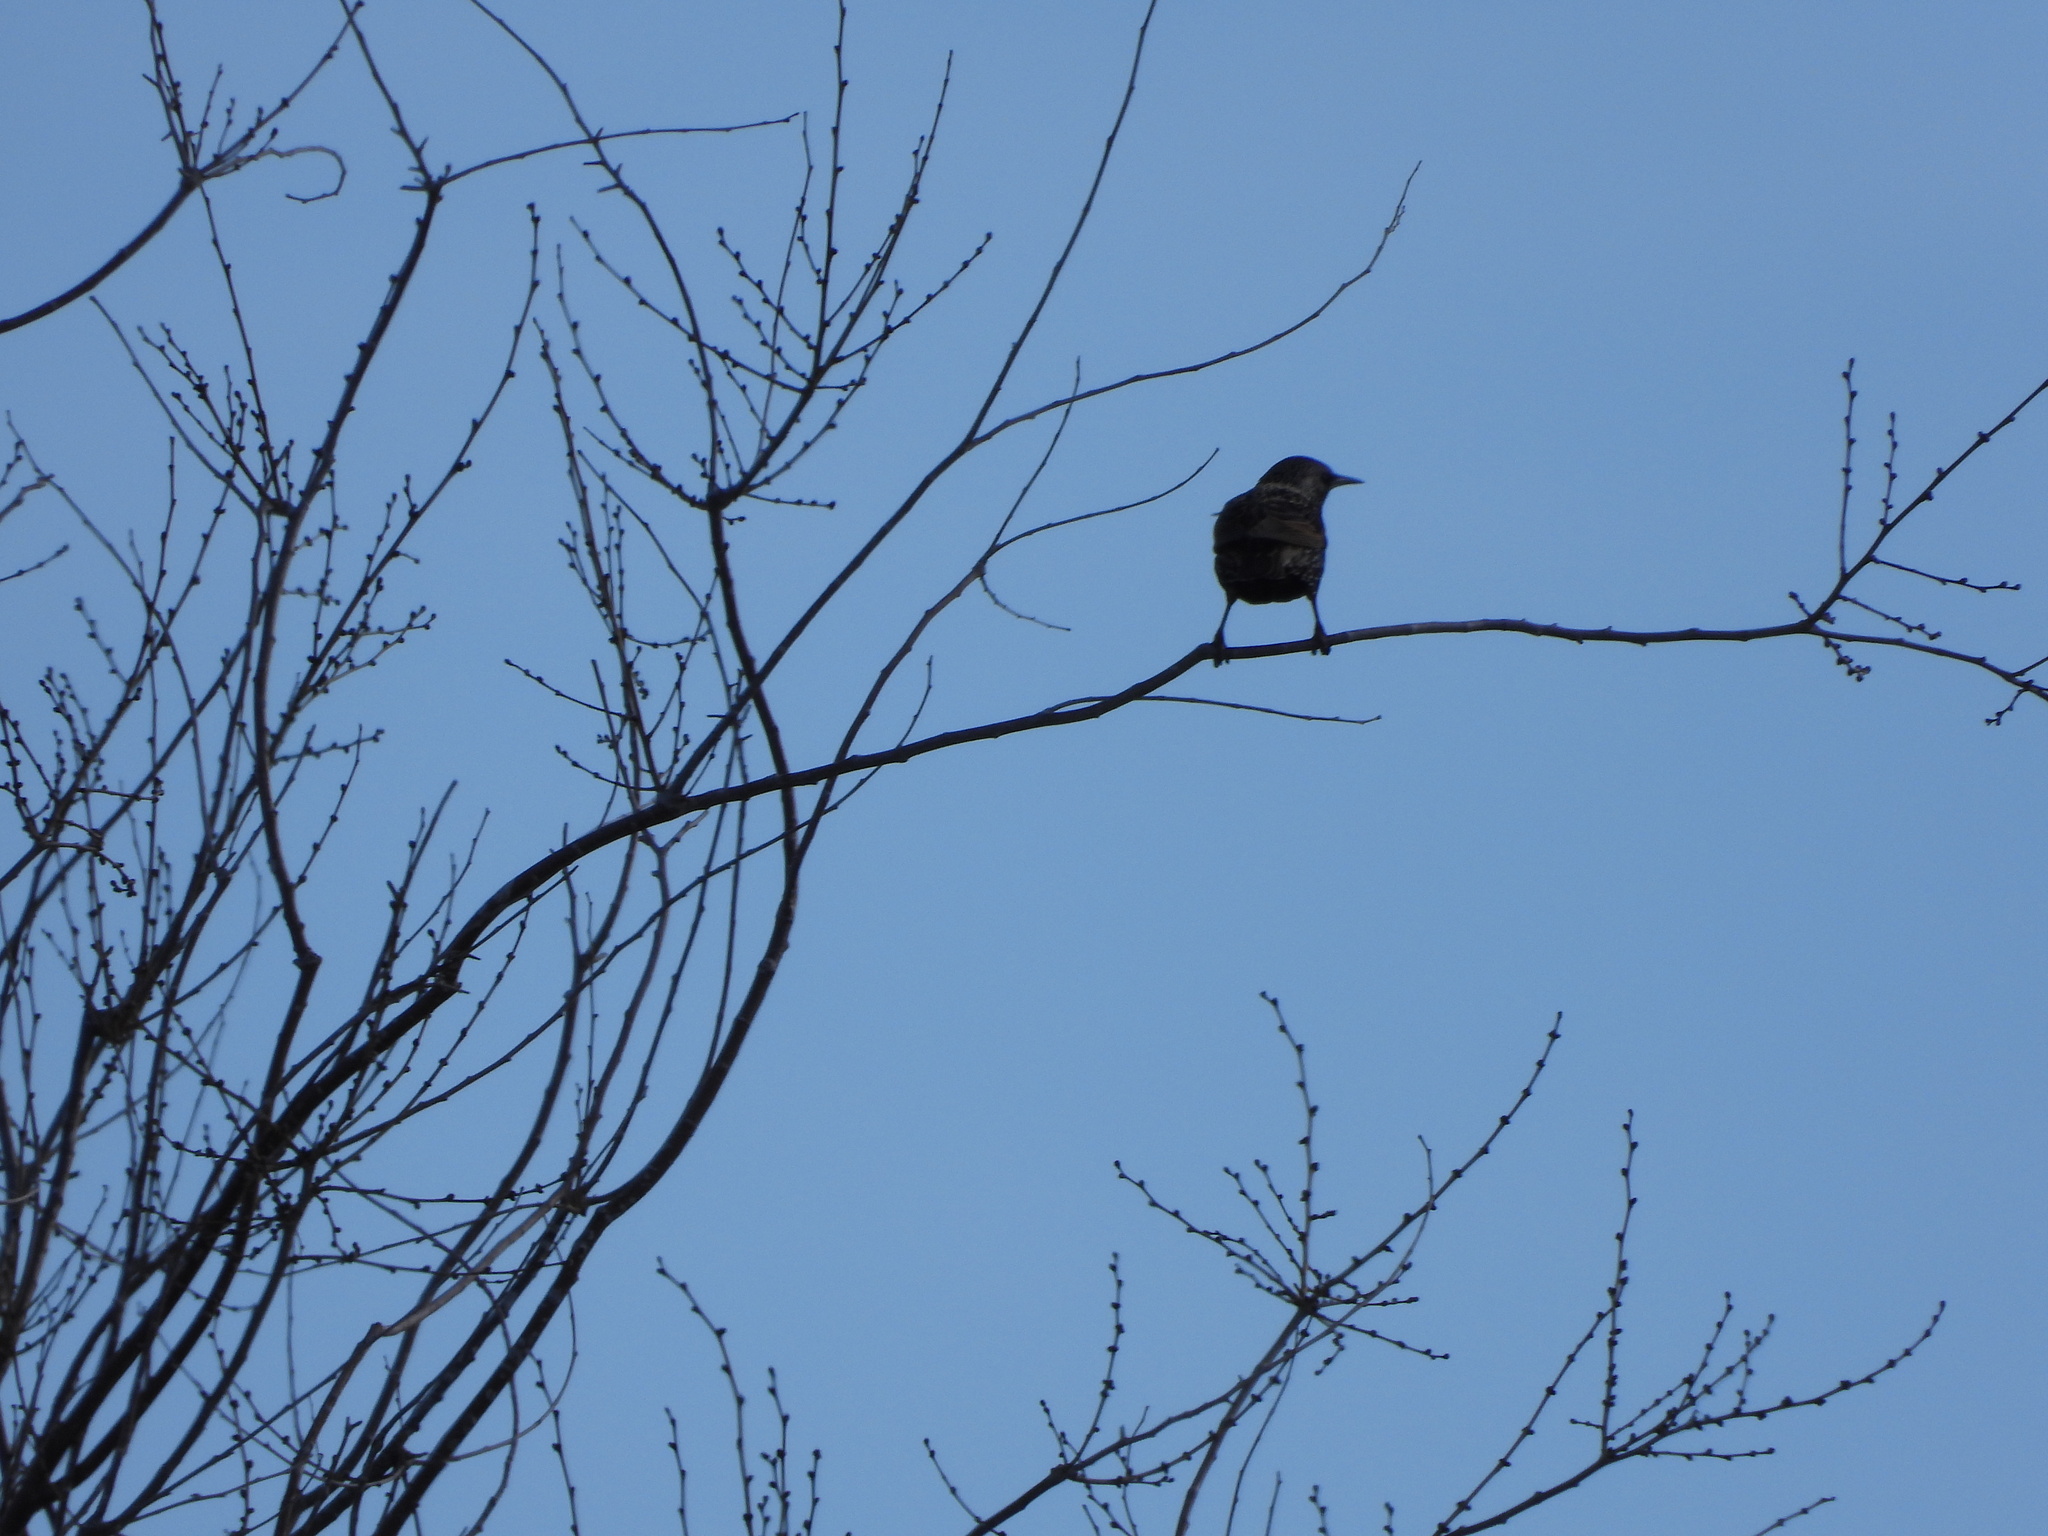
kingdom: Animalia
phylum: Chordata
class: Aves
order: Passeriformes
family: Sturnidae
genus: Sturnus
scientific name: Sturnus vulgaris
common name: Common starling
